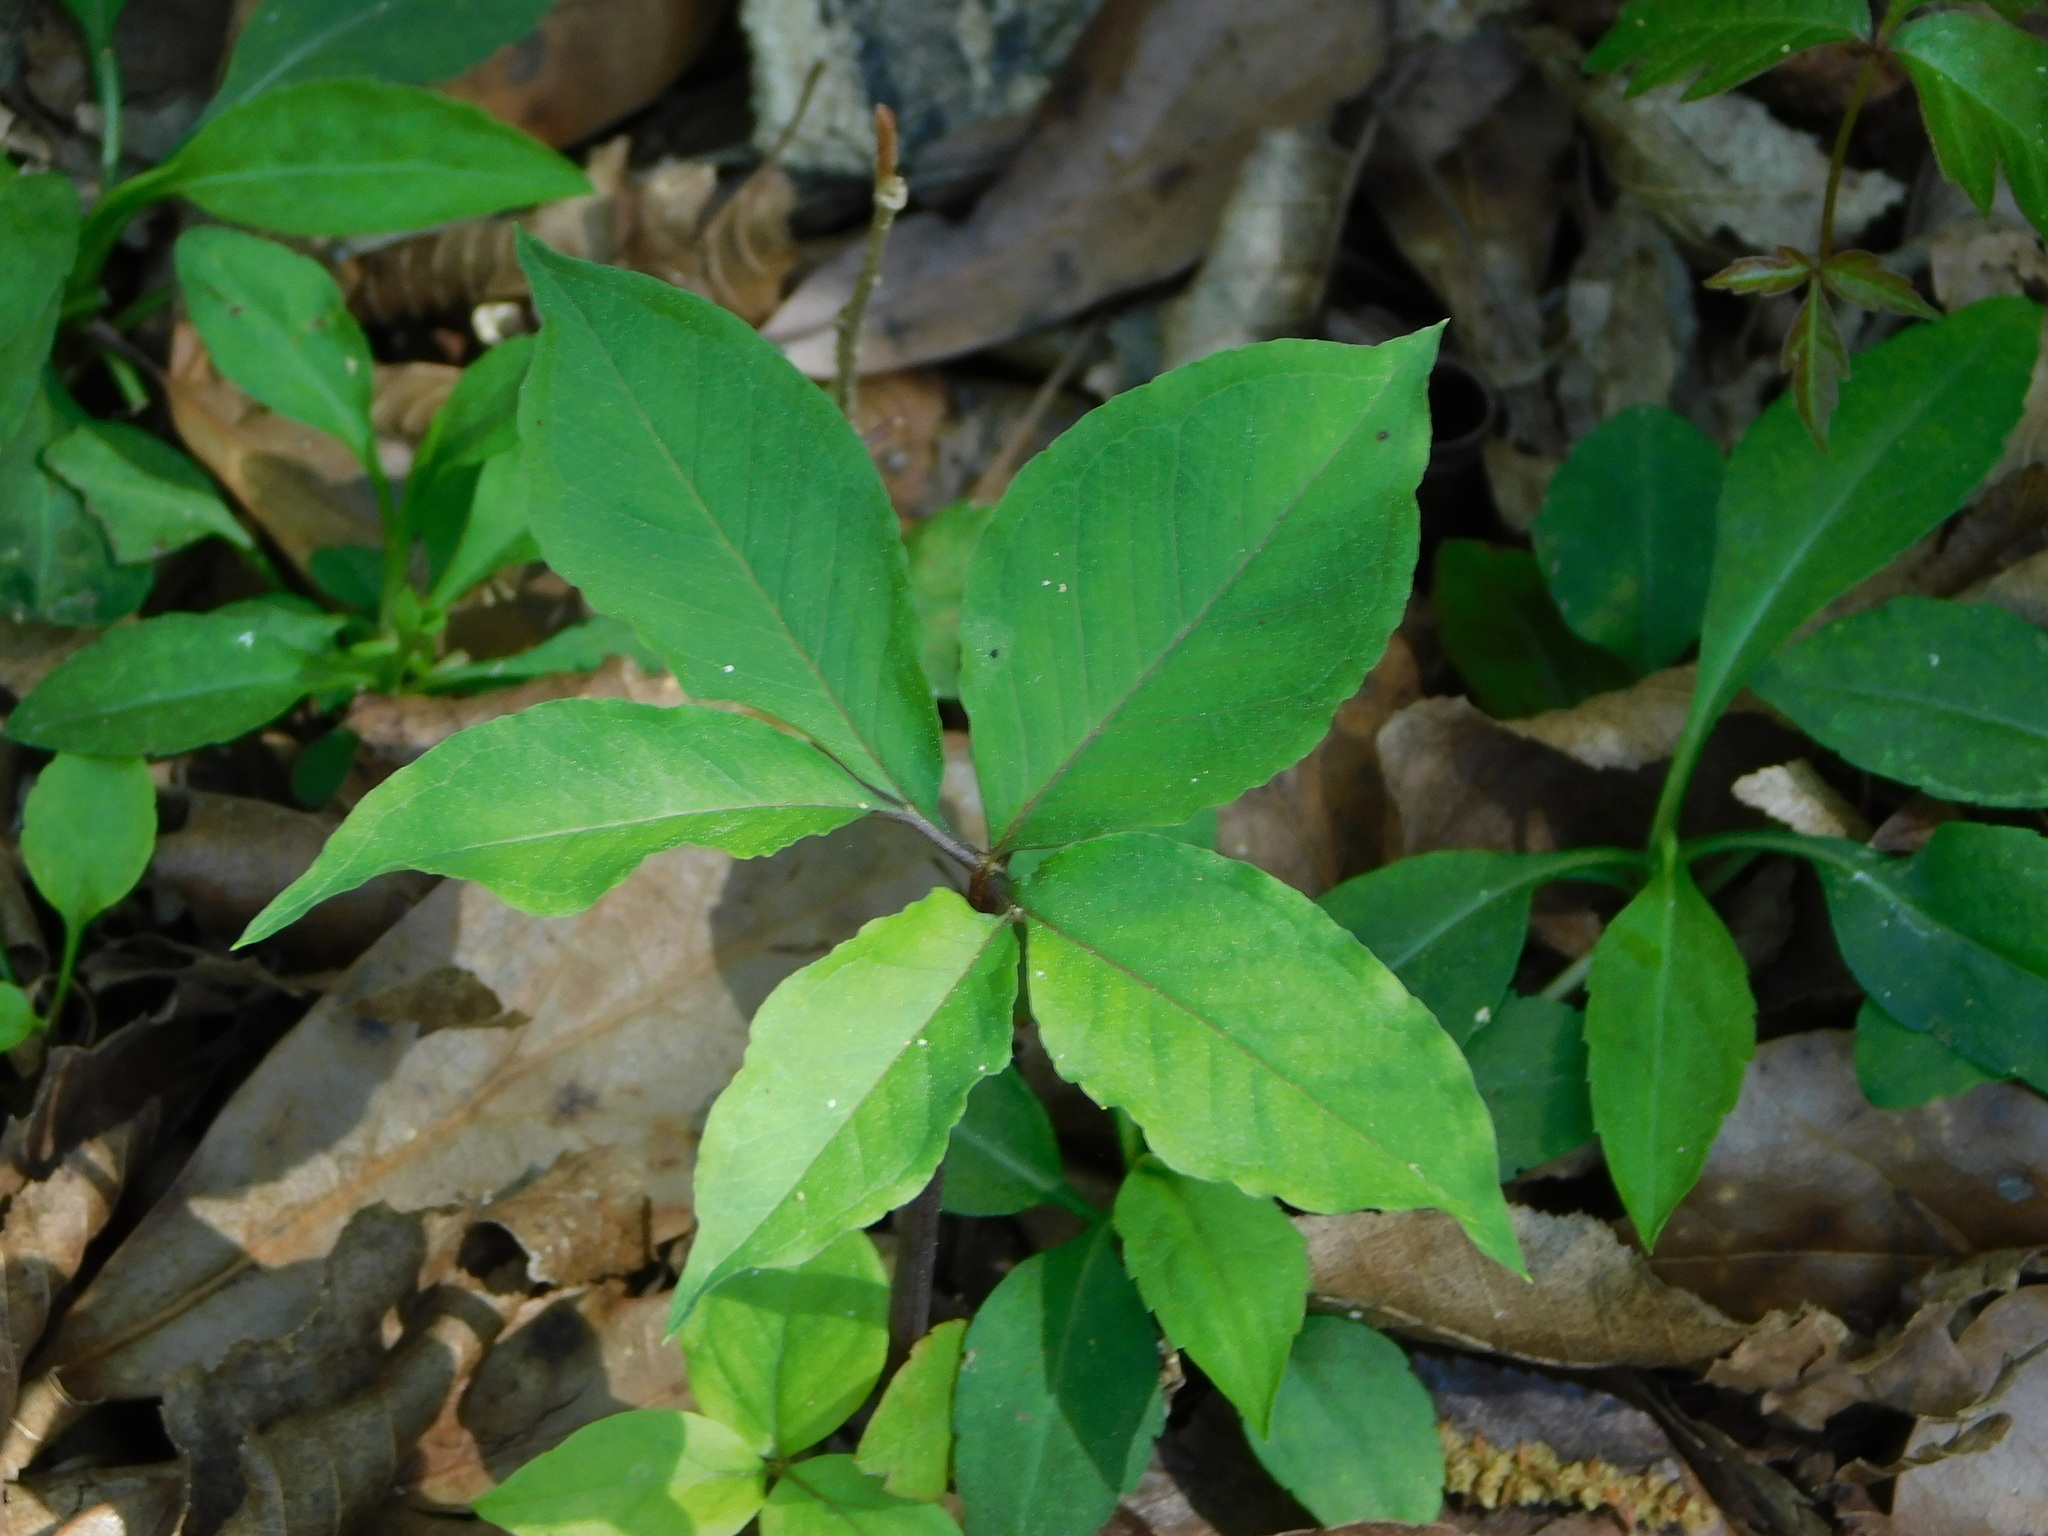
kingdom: Plantae
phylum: Tracheophyta
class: Liliopsida
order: Alismatales
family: Araceae
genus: Arisaema
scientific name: Arisaema dracontium
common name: Dragon-arum
